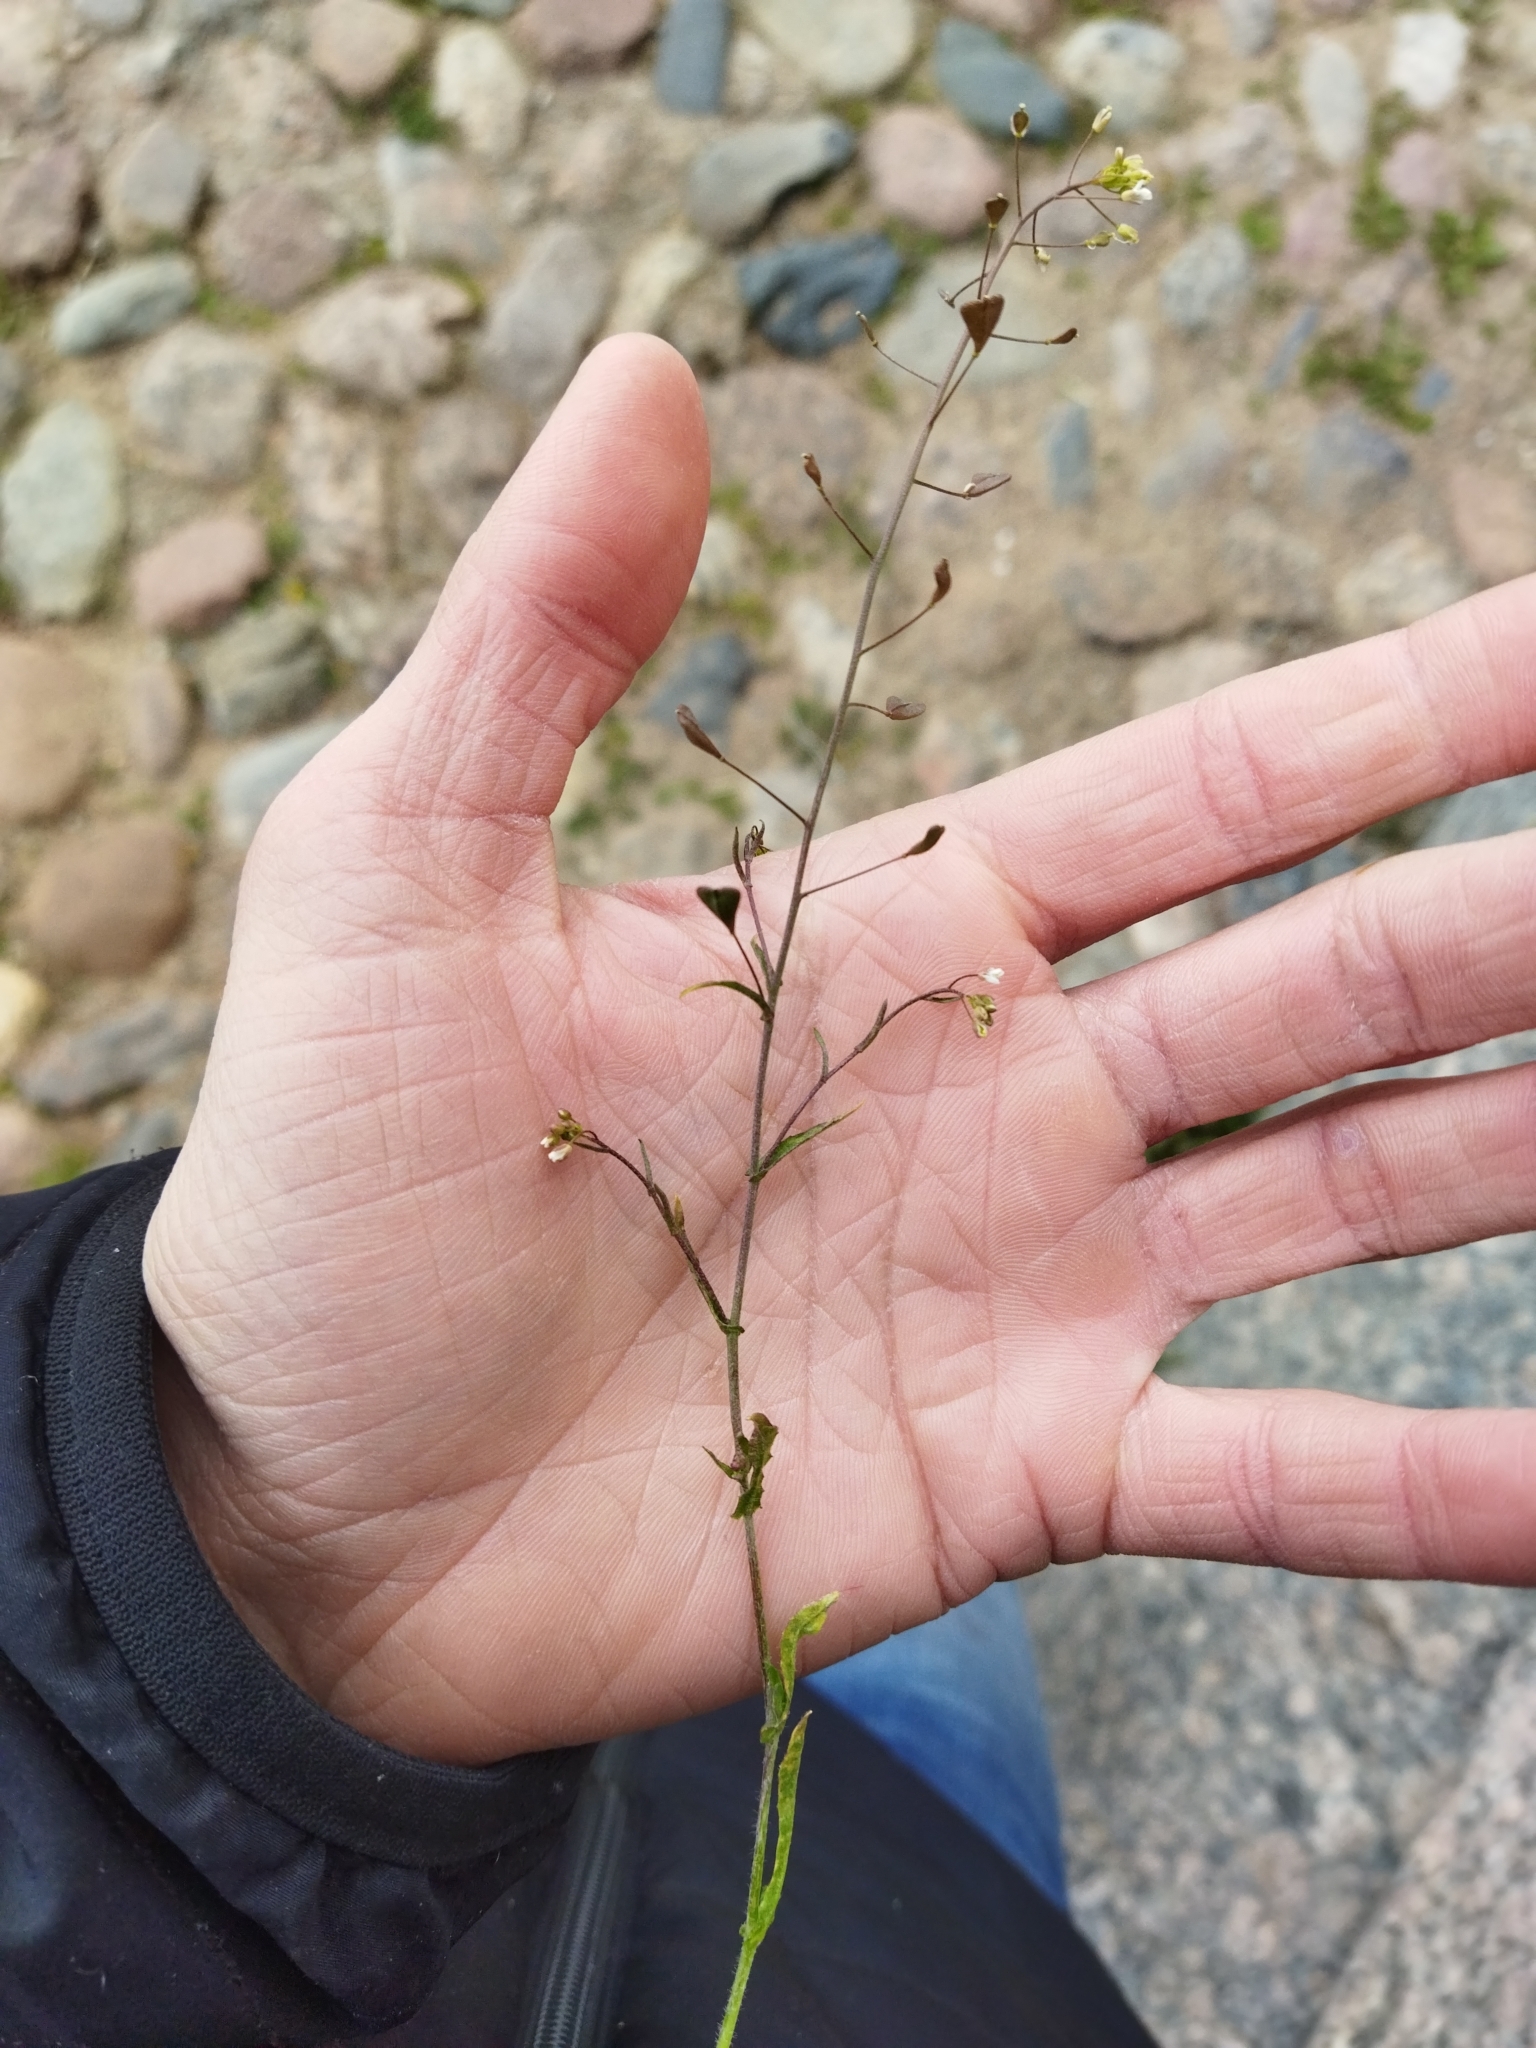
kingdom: Plantae
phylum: Tracheophyta
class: Magnoliopsida
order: Brassicales
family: Brassicaceae
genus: Capsella
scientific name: Capsella bursa-pastoris
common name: Shepherd's purse
